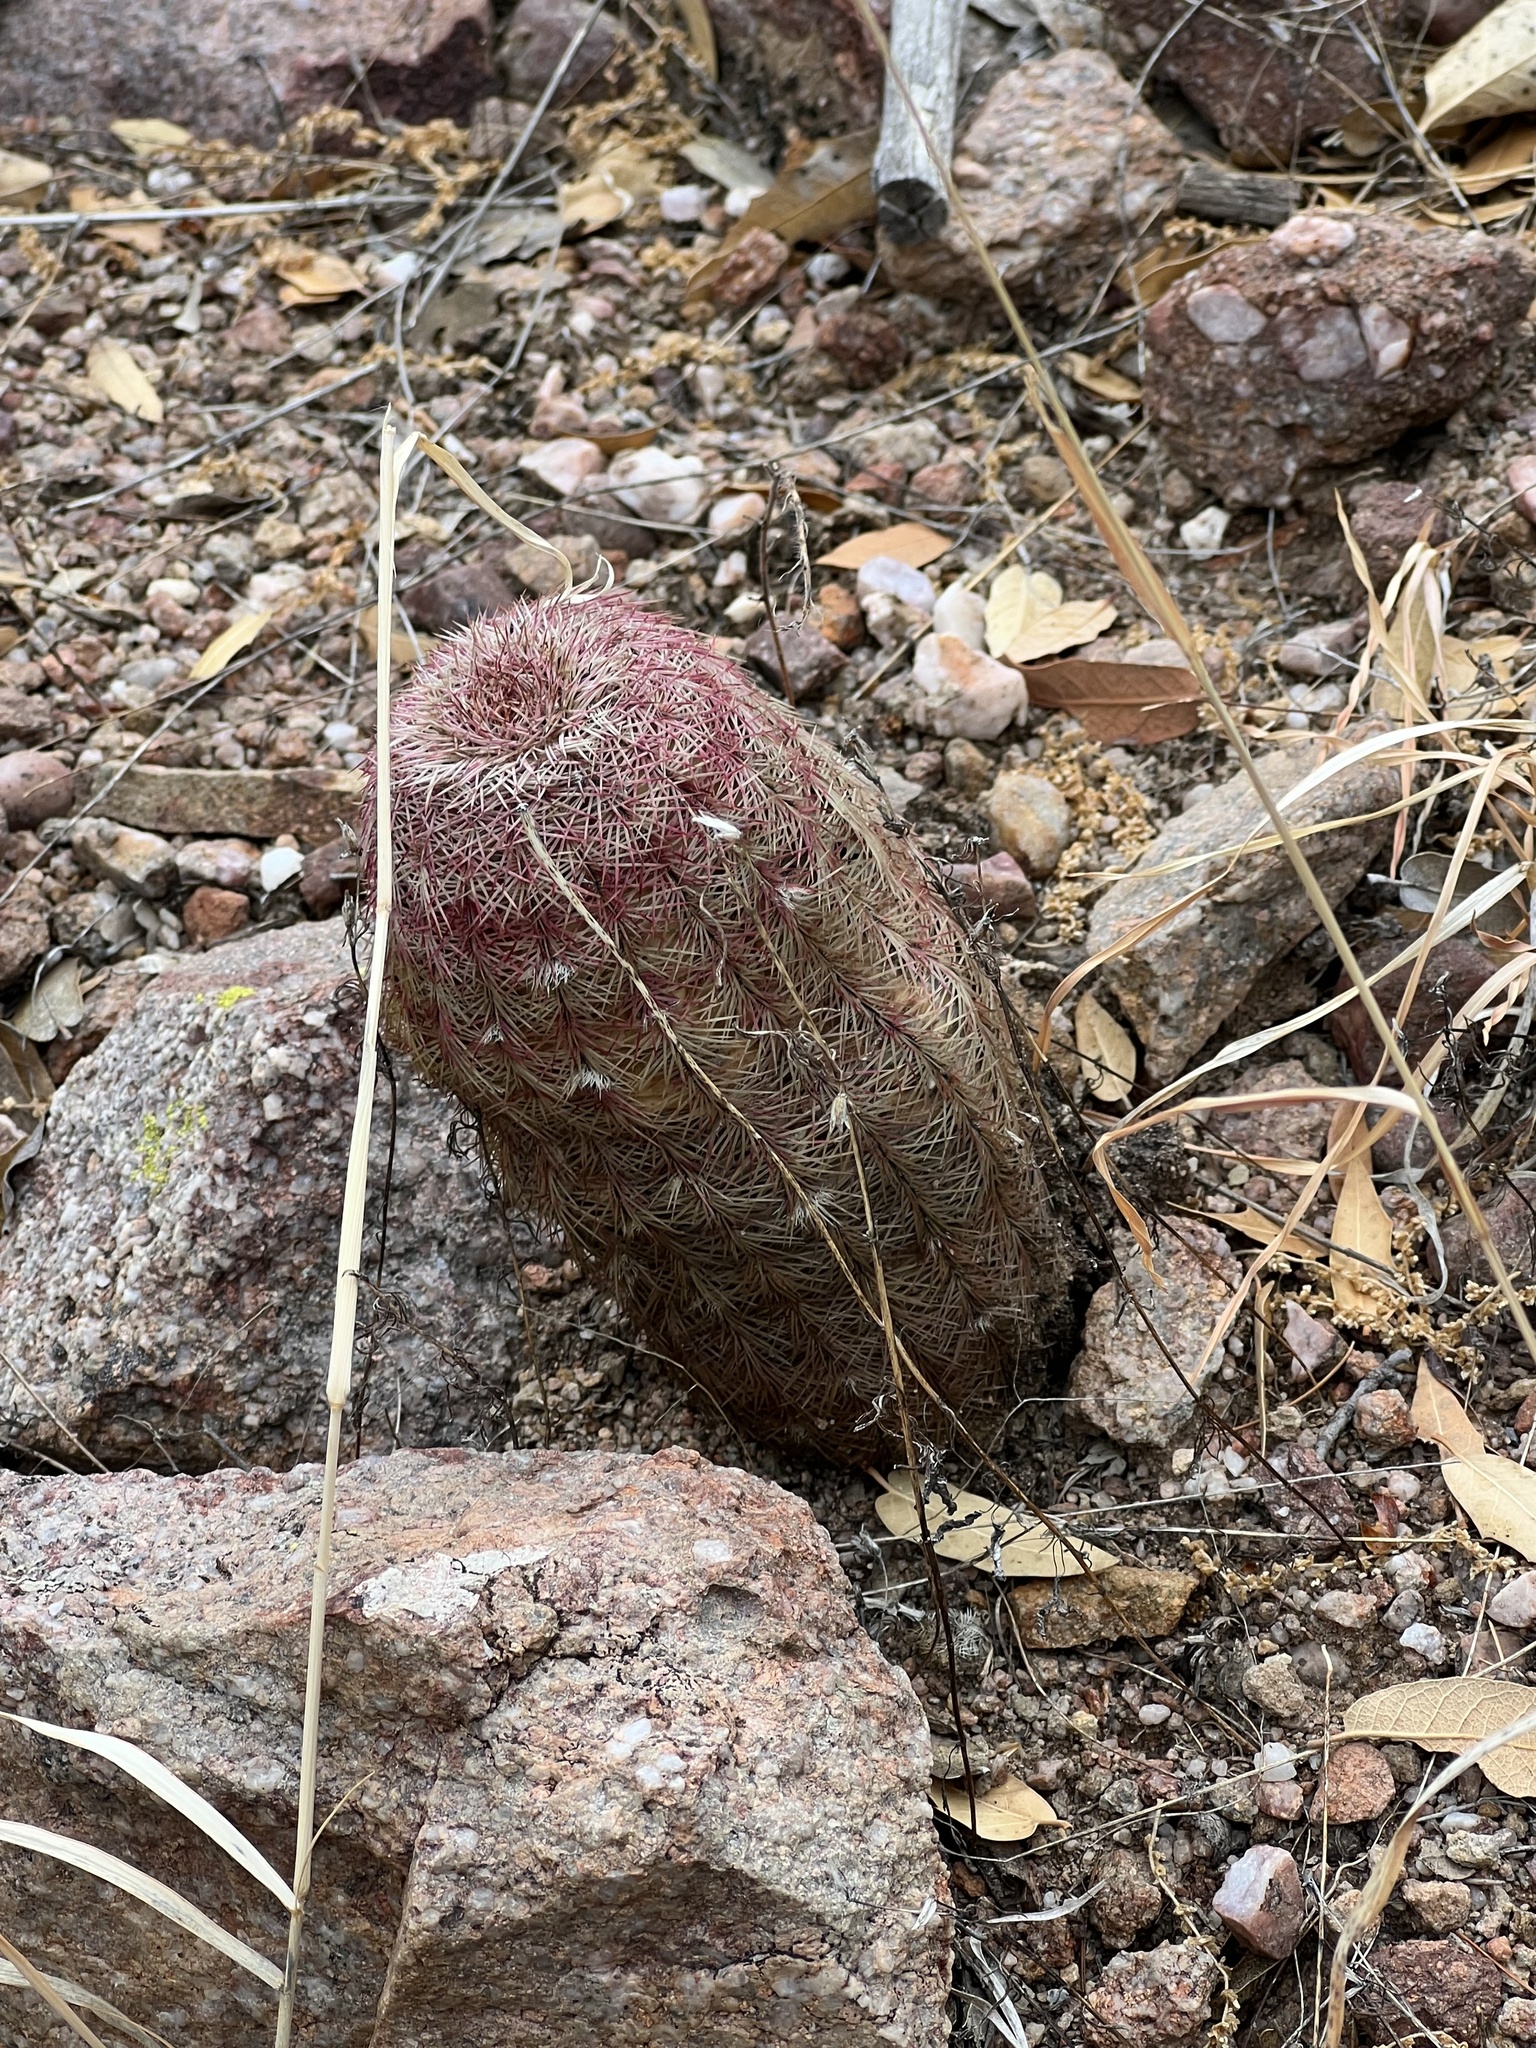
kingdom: Plantae
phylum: Tracheophyta
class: Magnoliopsida
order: Caryophyllales
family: Cactaceae
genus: Echinocereus
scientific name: Echinocereus rigidissimus
